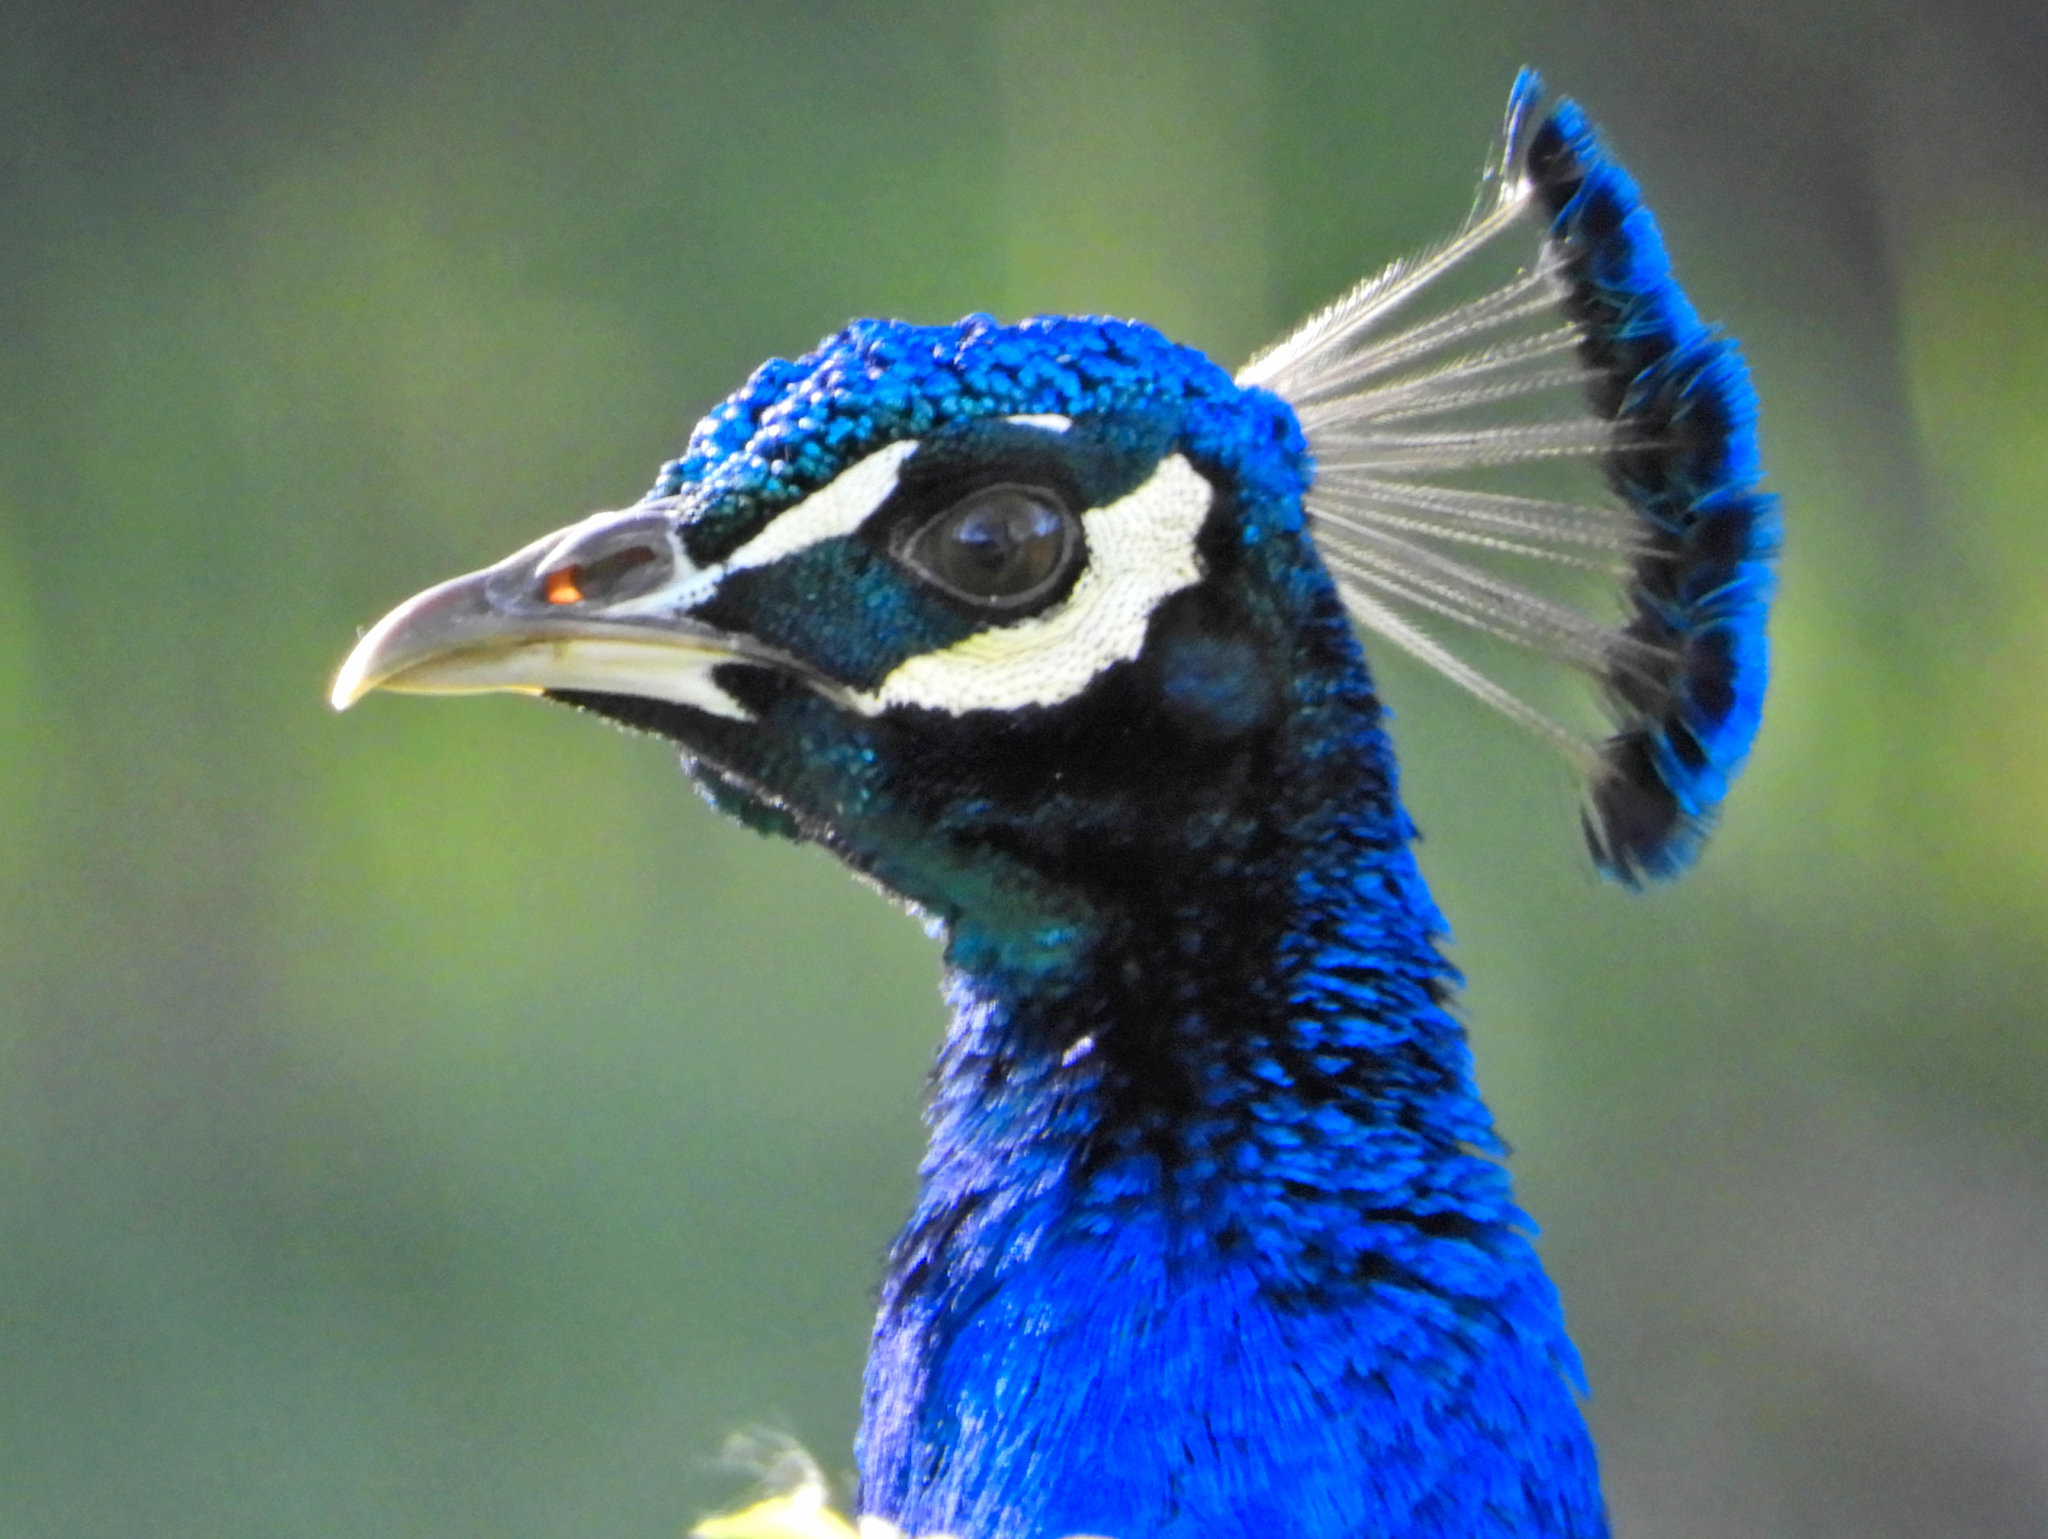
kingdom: Animalia
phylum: Chordata
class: Aves
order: Galliformes
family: Phasianidae
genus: Pavo
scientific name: Pavo cristatus
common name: Indian peafowl
